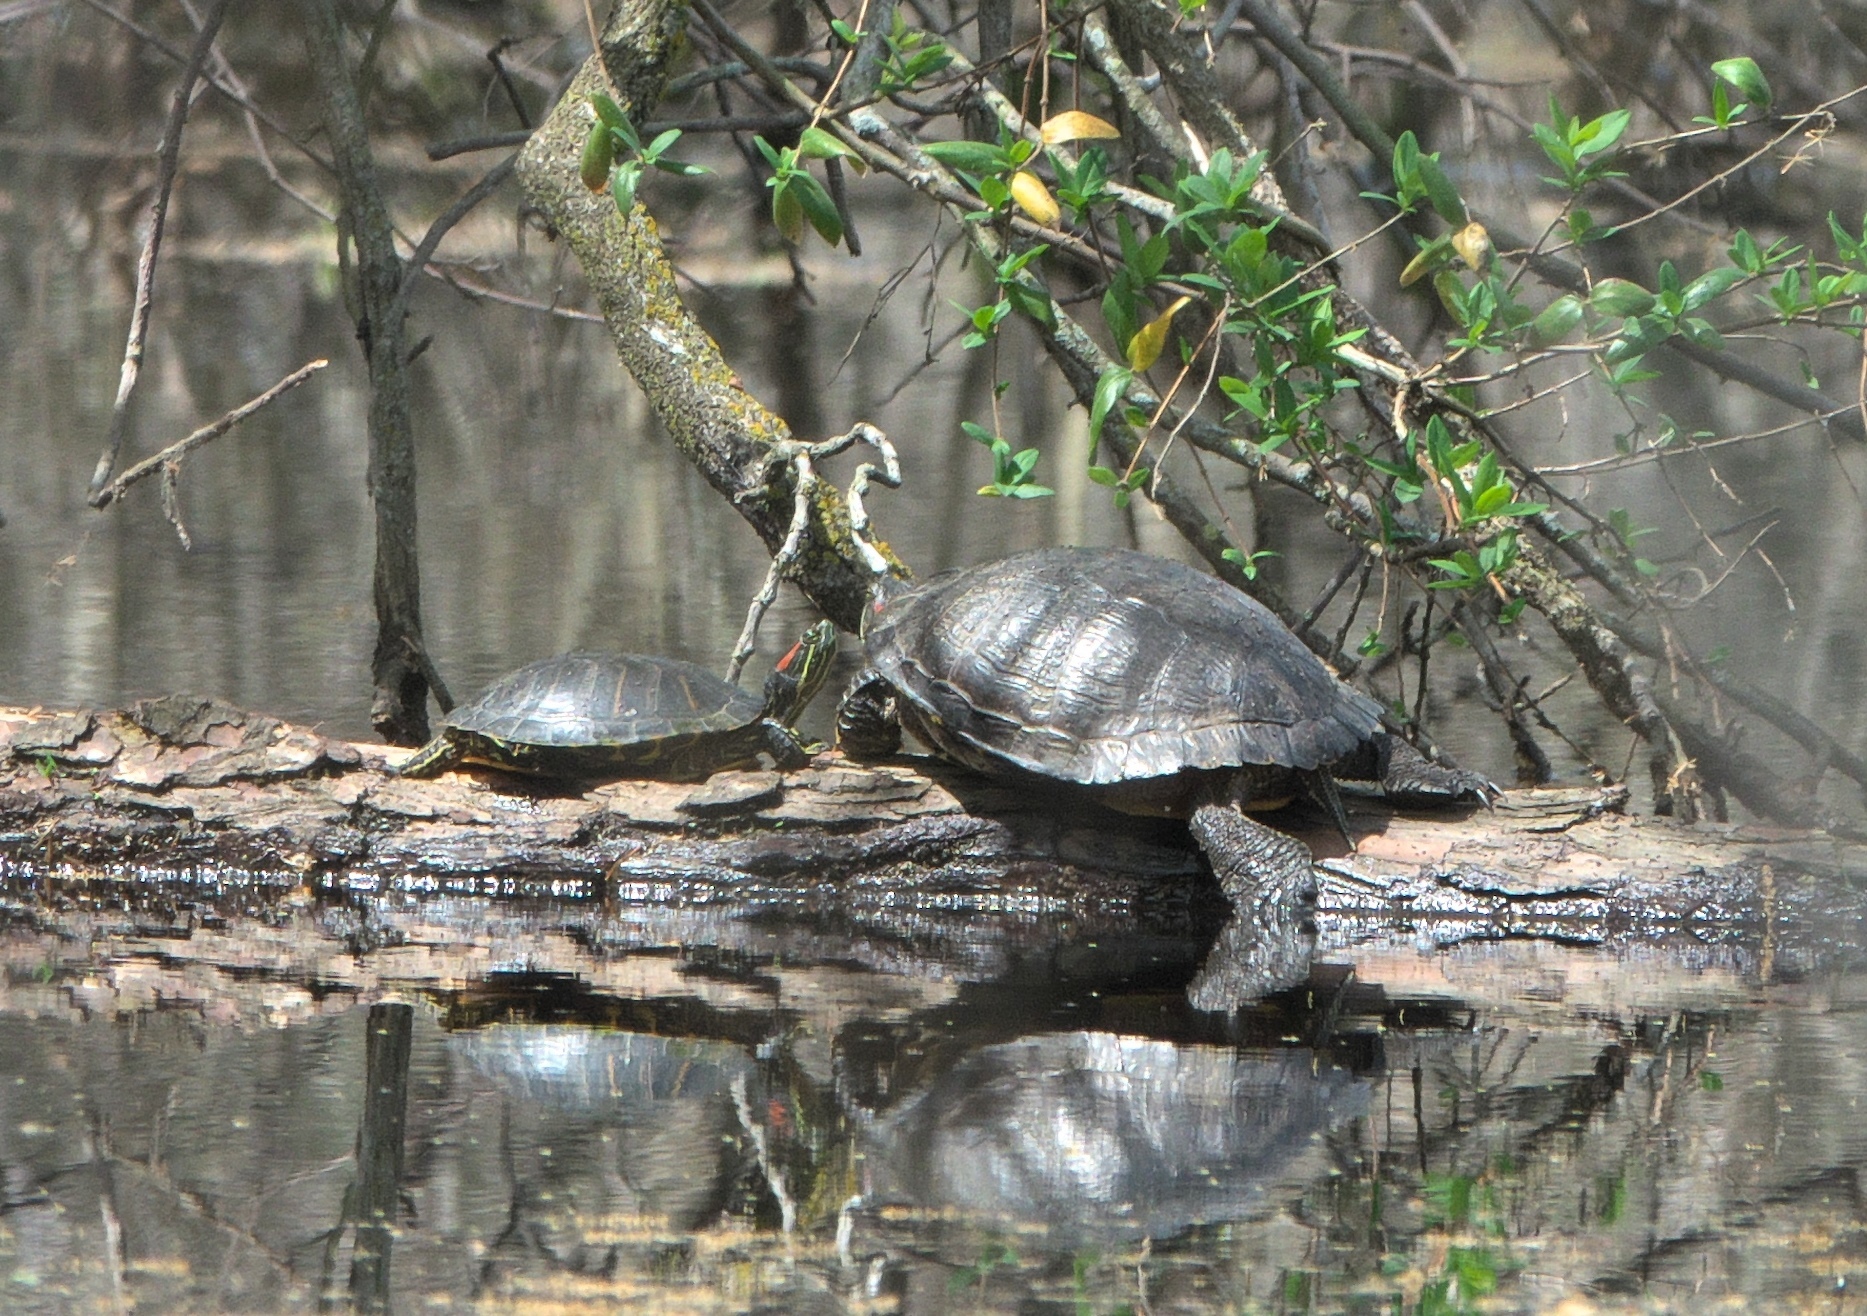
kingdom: Animalia
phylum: Chordata
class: Testudines
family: Emydidae
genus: Trachemys
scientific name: Trachemys scripta
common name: Slider
